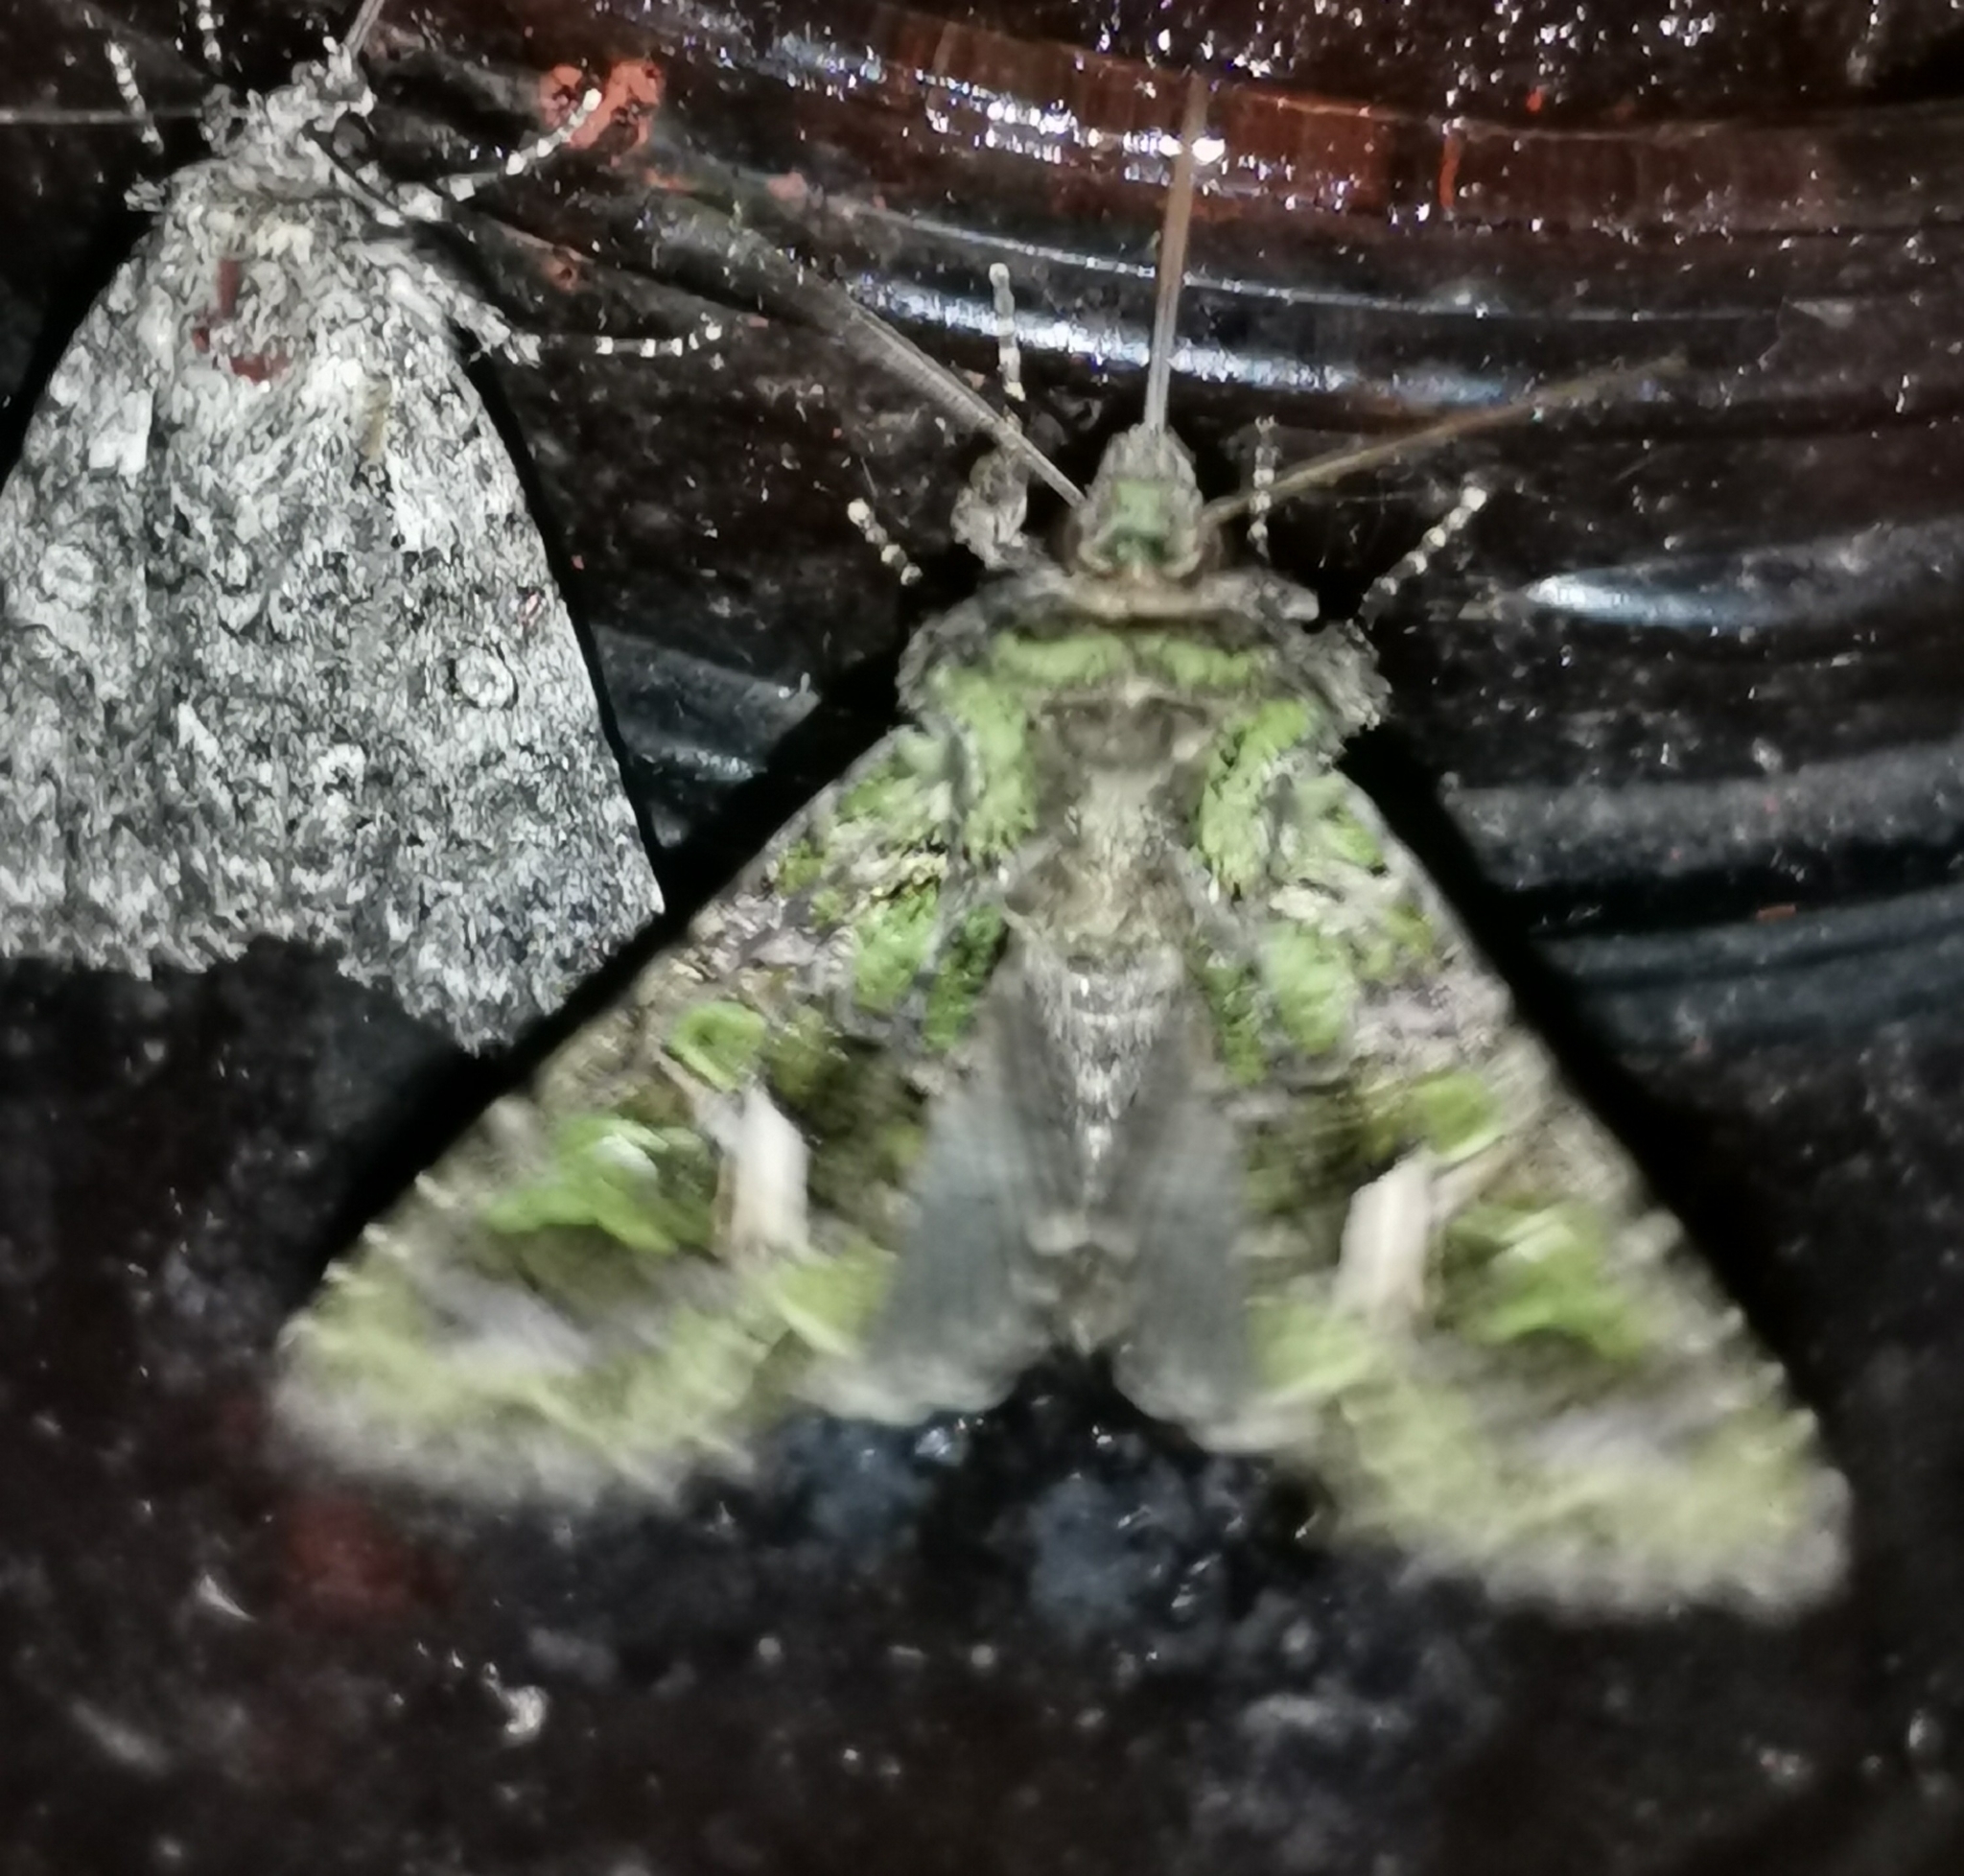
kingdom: Animalia
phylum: Arthropoda
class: Insecta
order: Lepidoptera
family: Noctuidae
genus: Trachea
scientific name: Trachea atriplicis
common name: Orache moth
